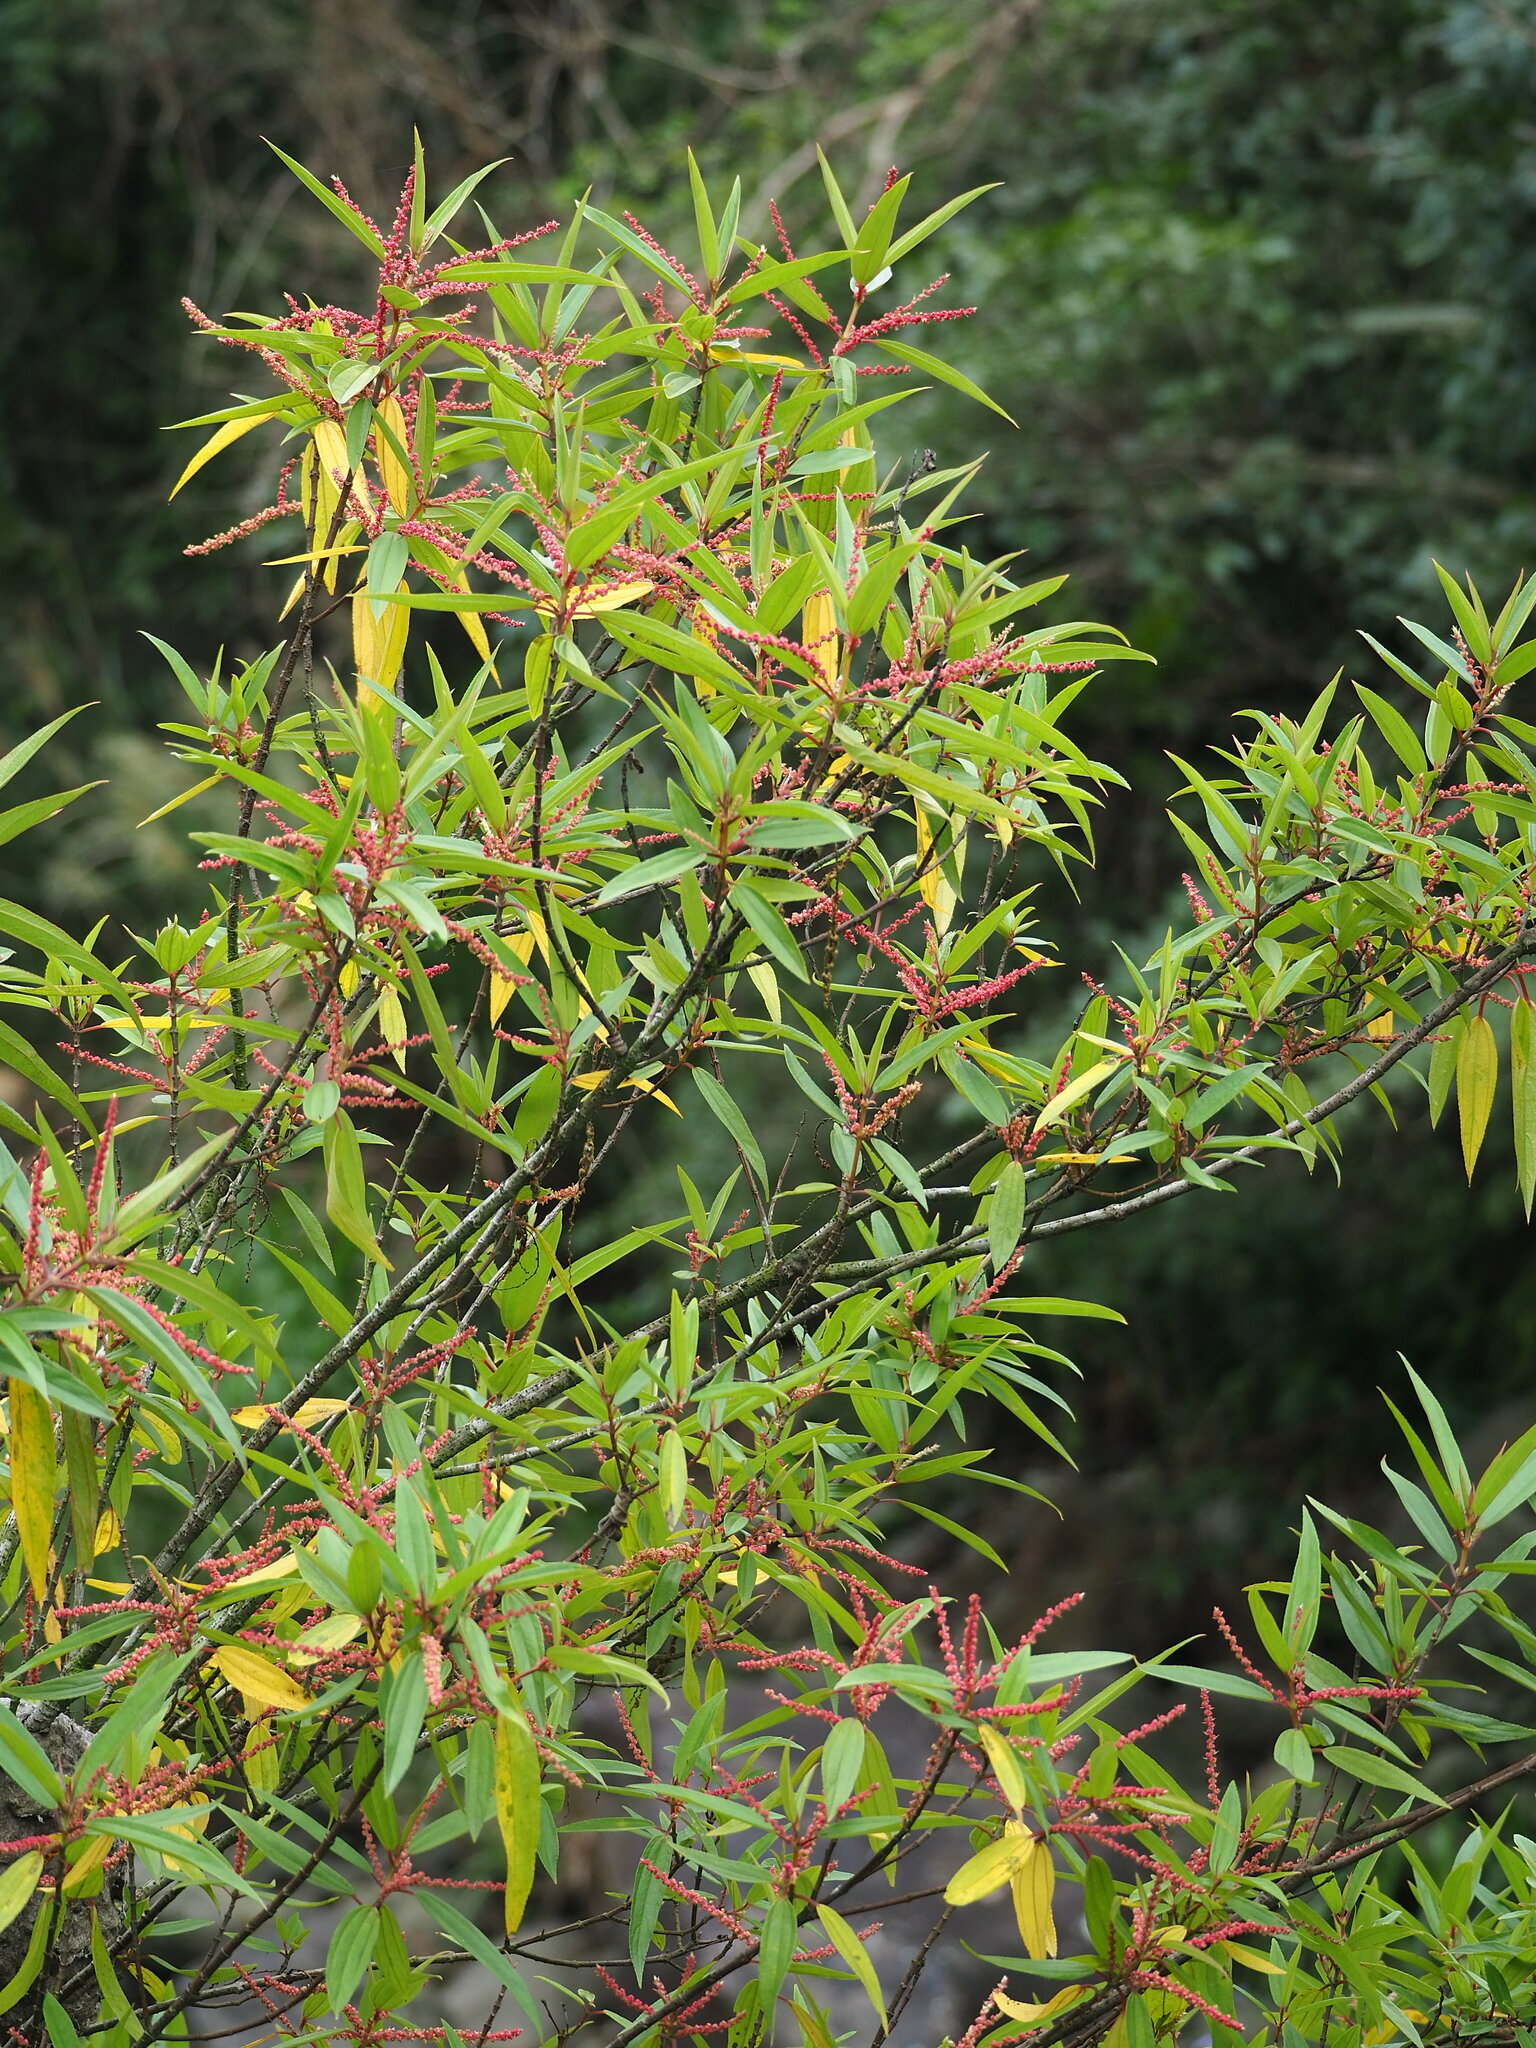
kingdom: Plantae
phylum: Tracheophyta
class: Magnoliopsida
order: Rosales
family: Urticaceae
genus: Boehmeria
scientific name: Boehmeria densiflora
